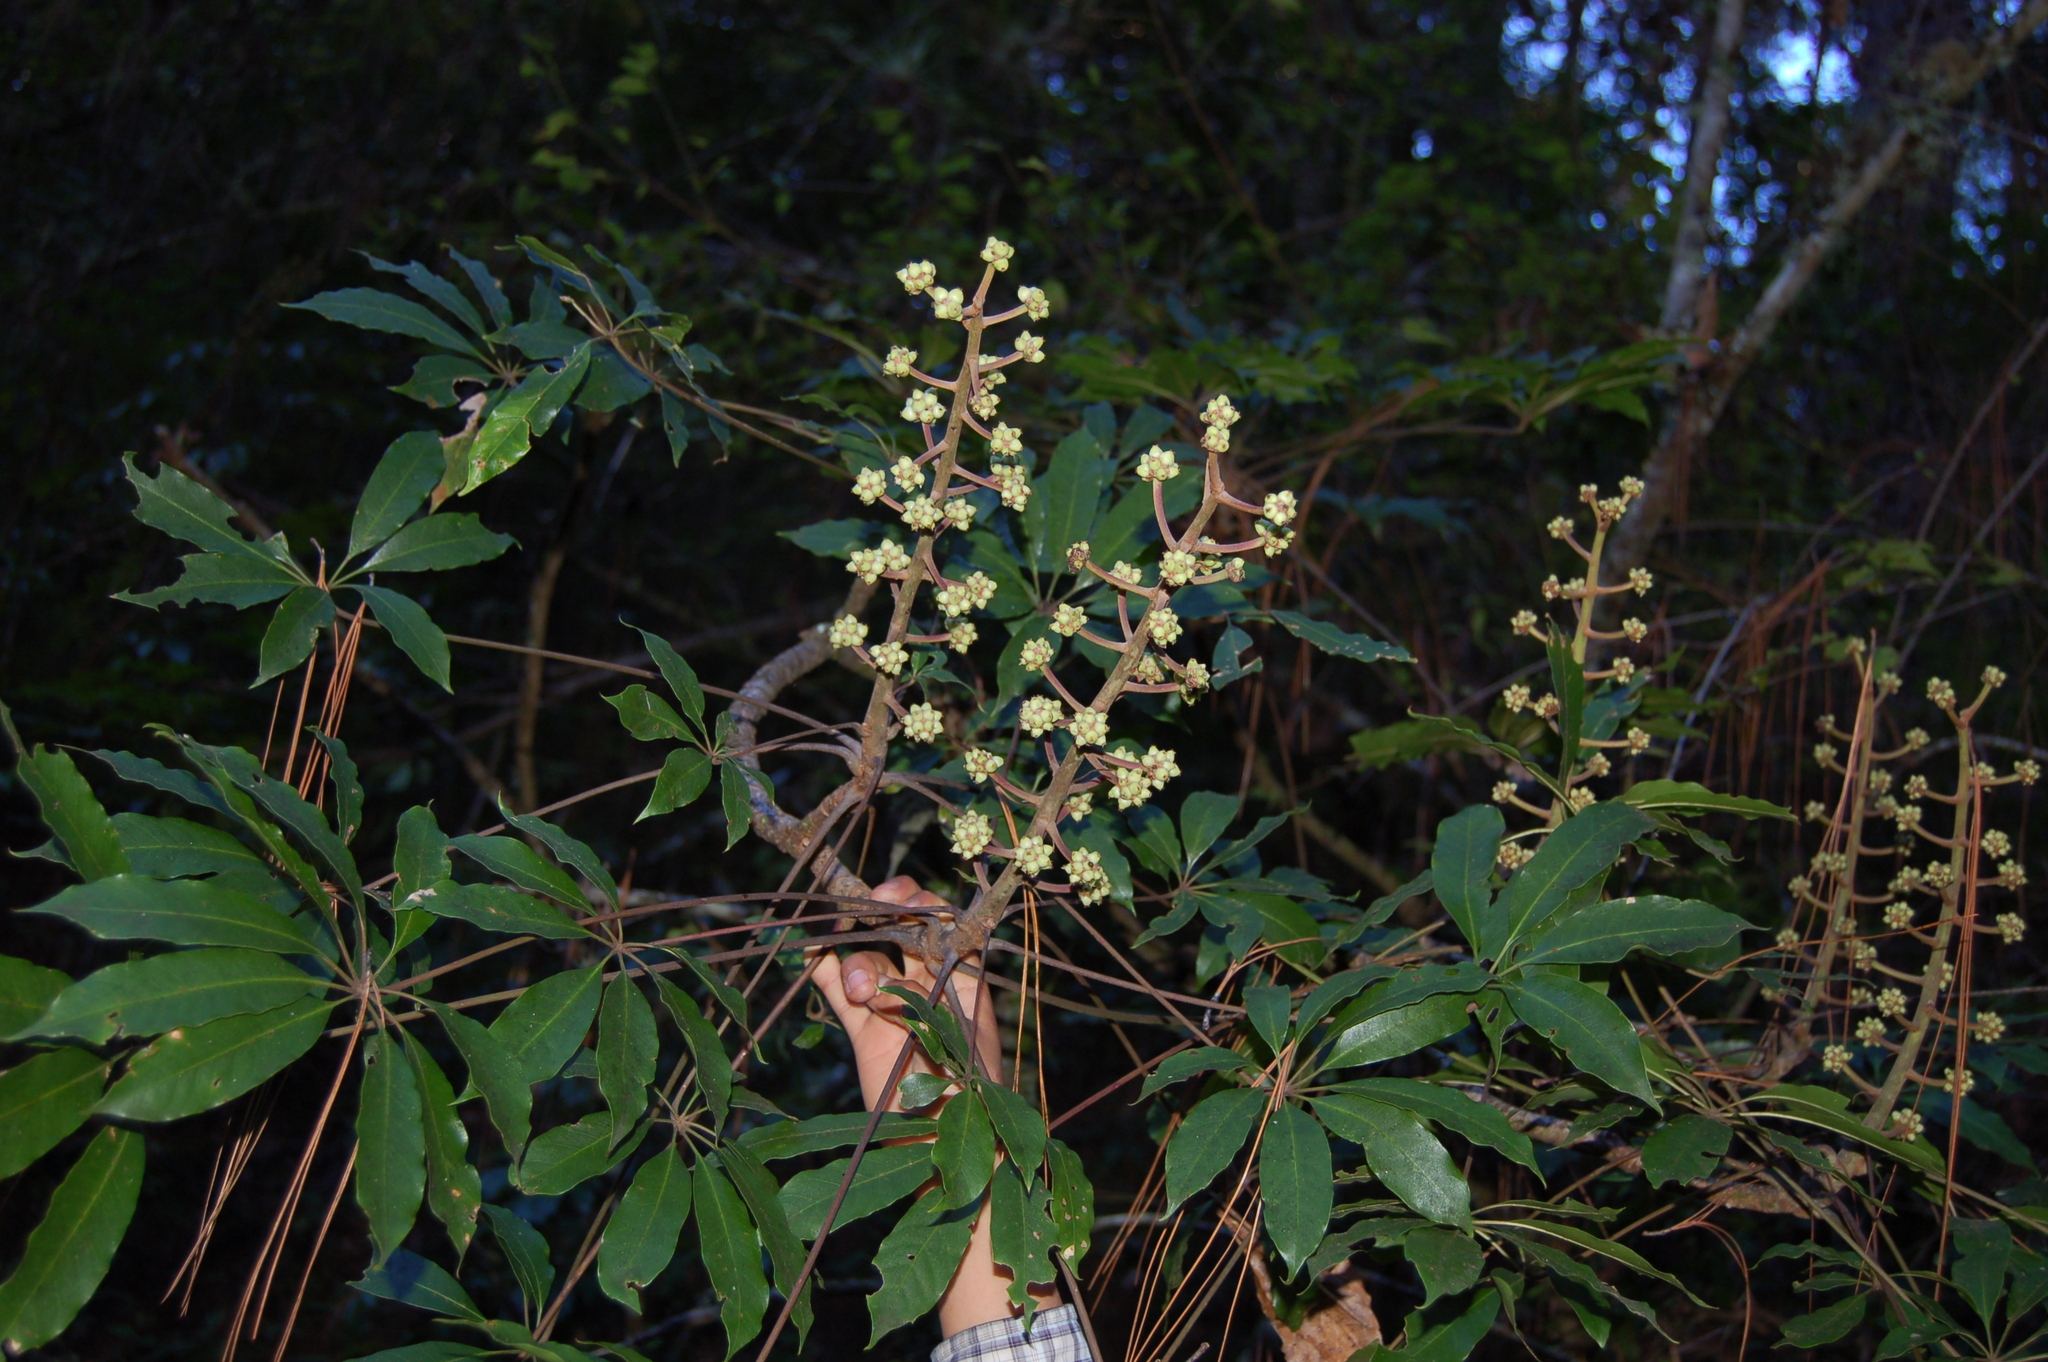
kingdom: Plantae
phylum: Tracheophyta
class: Magnoliopsida
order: Apiales
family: Araliaceae
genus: Oreopanax
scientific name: Oreopanax xalapensis
